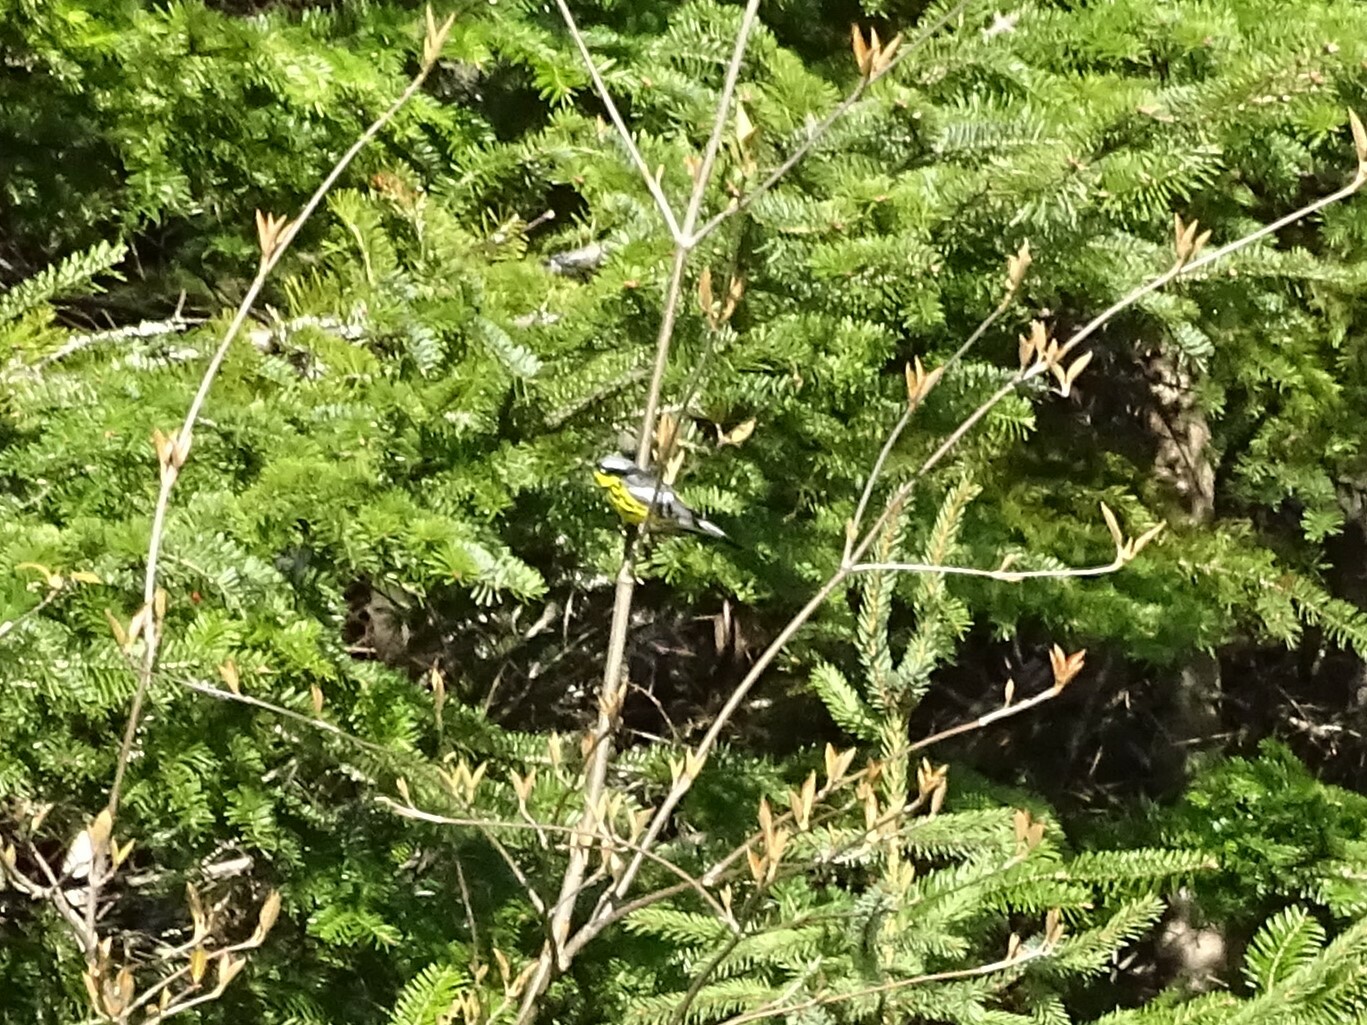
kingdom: Animalia
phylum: Chordata
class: Aves
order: Passeriformes
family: Parulidae
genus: Setophaga
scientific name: Setophaga magnolia
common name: Magnolia warbler
